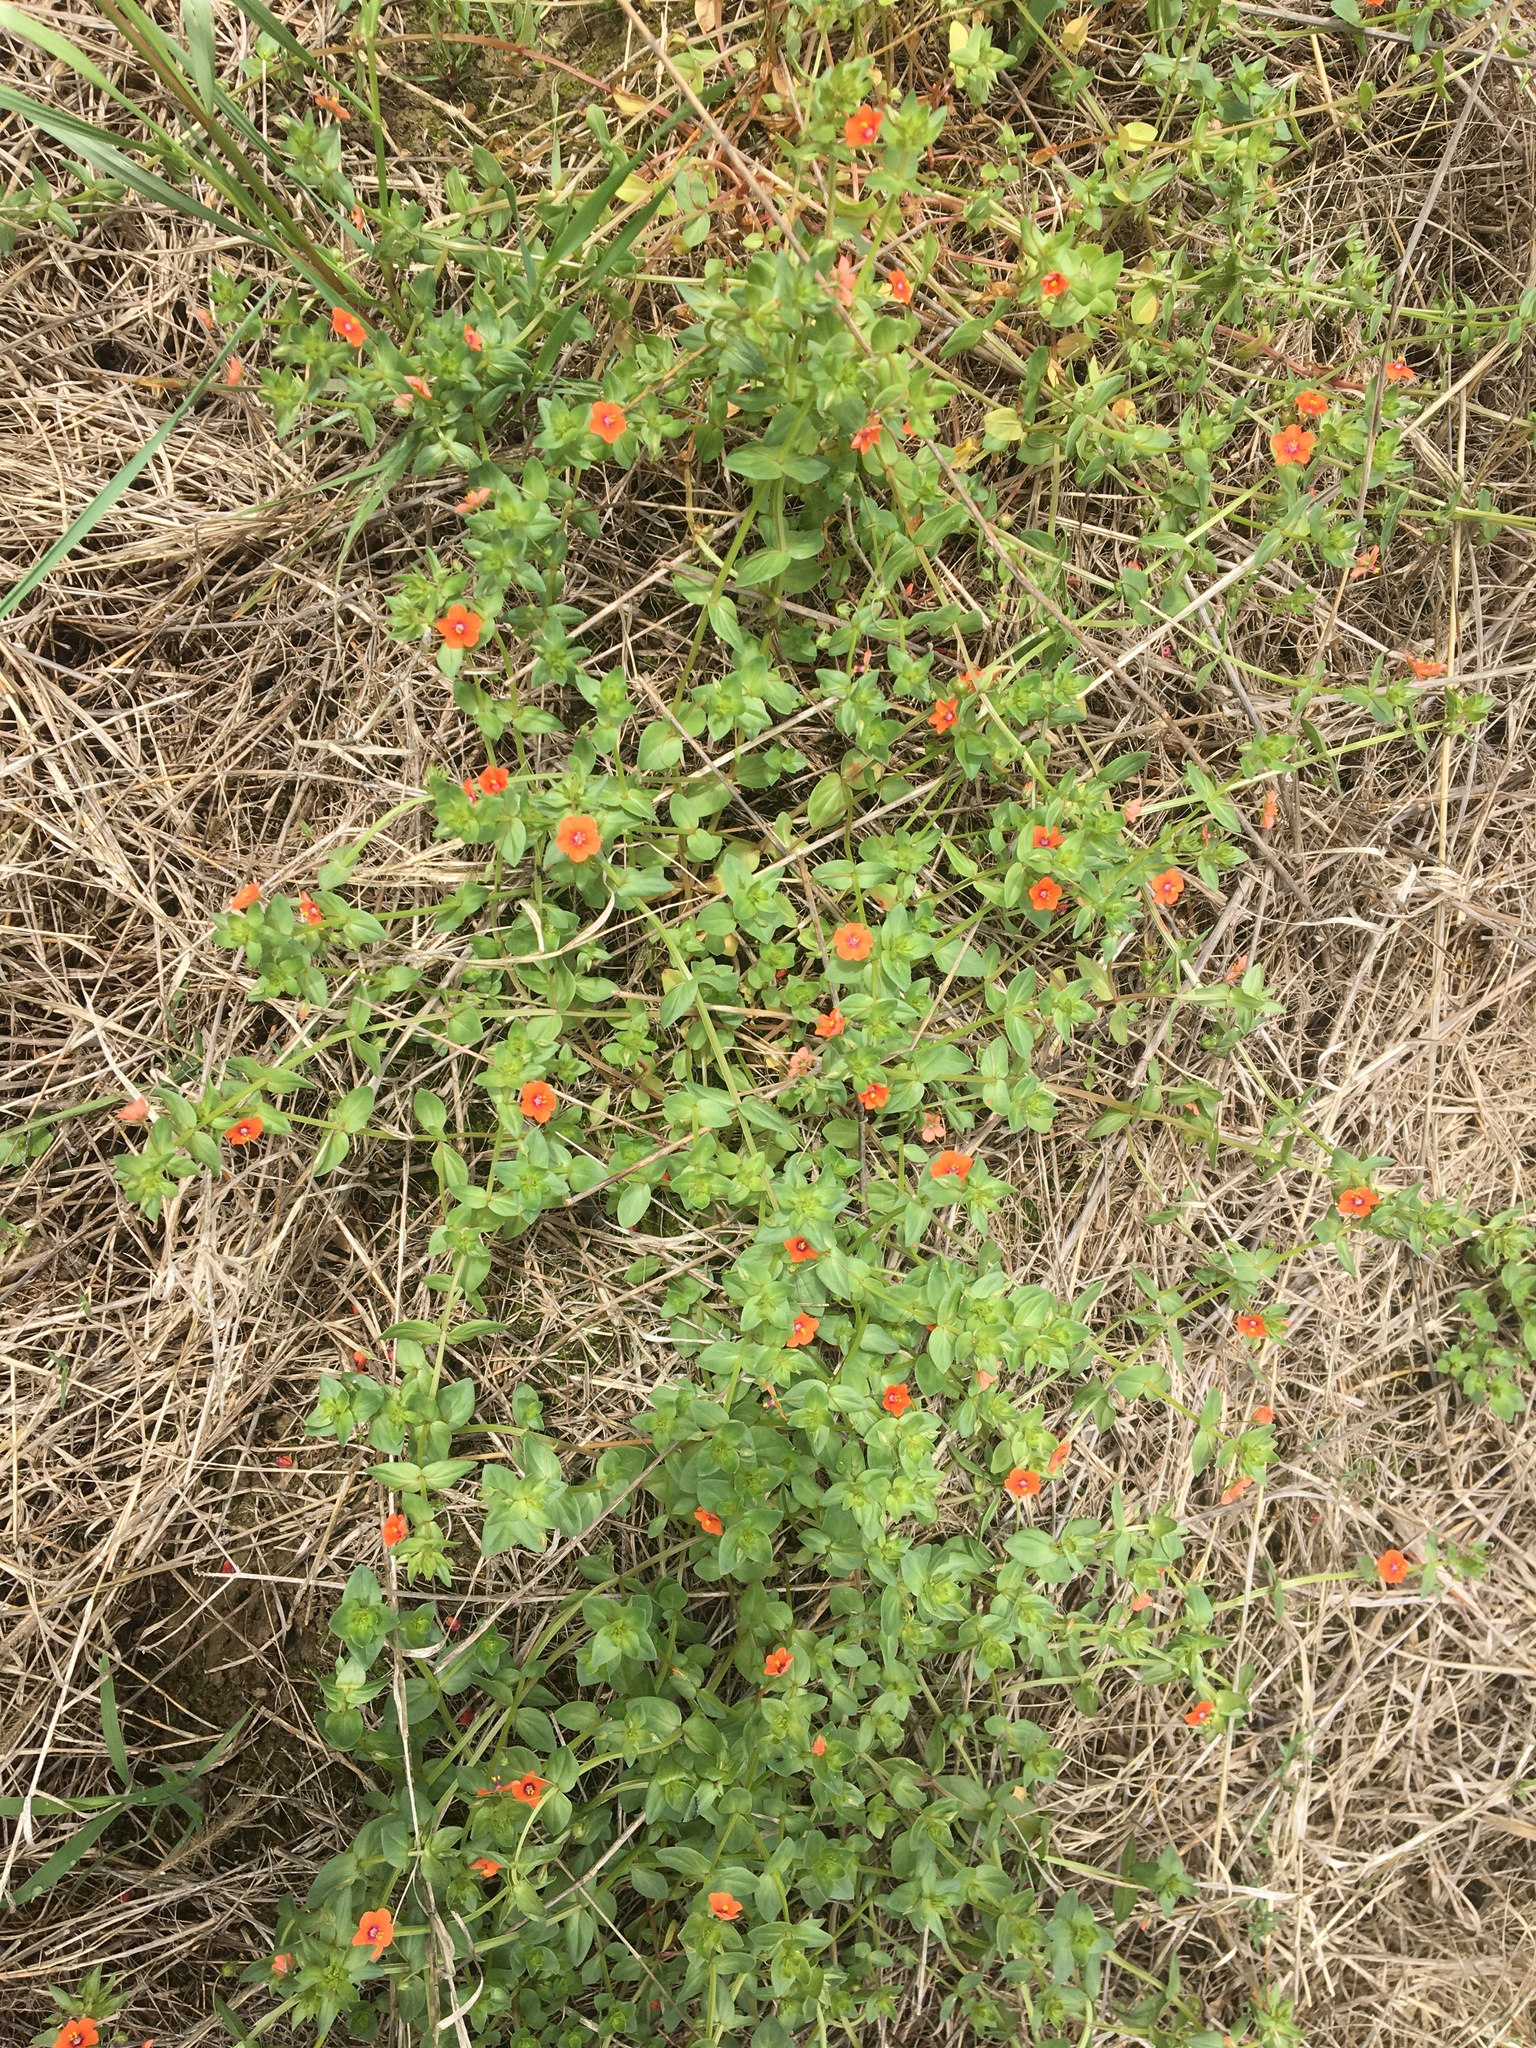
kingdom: Plantae
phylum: Tracheophyta
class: Magnoliopsida
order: Ericales
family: Primulaceae
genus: Lysimachia
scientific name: Lysimachia arvensis
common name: Scarlet pimpernel
